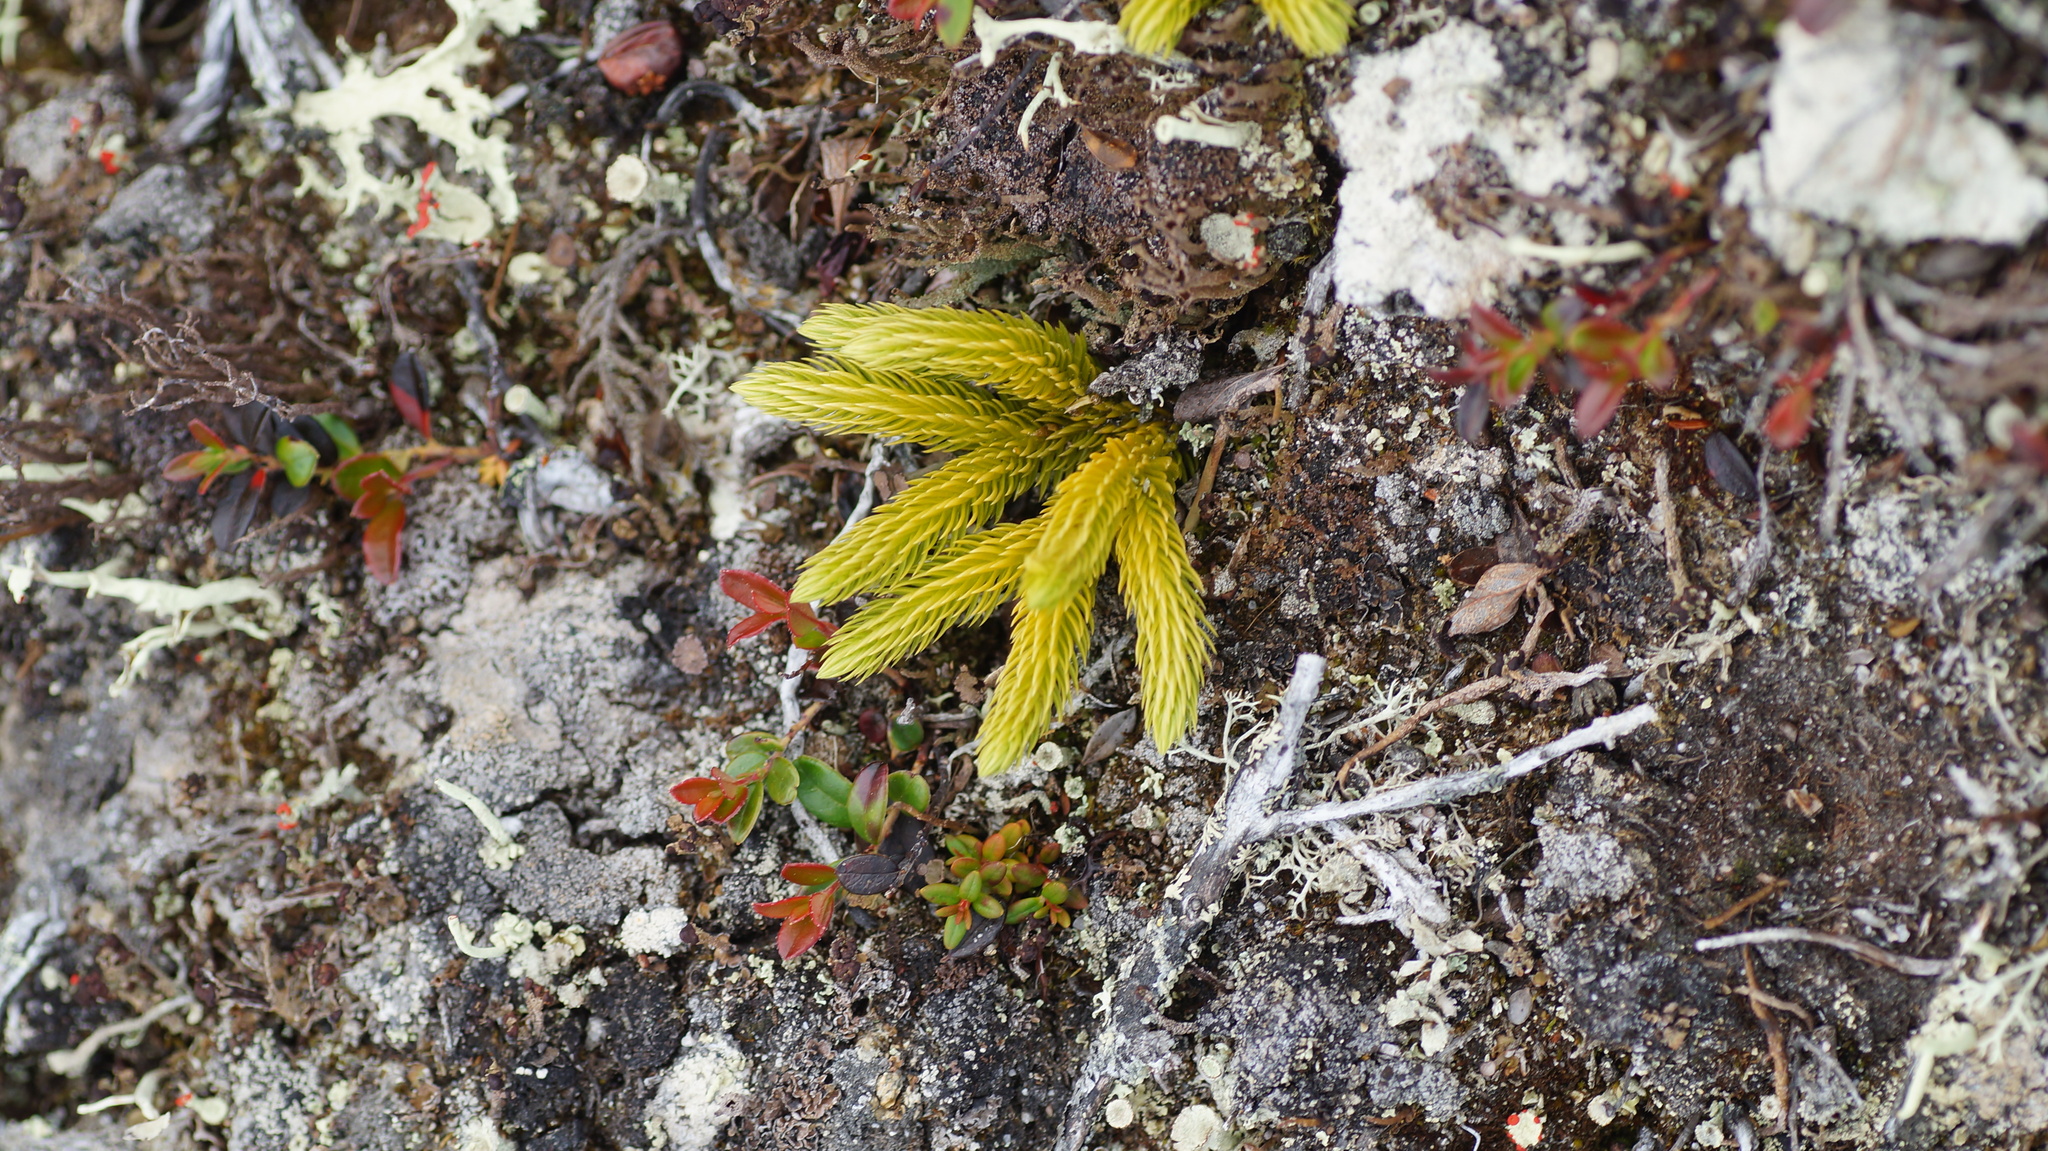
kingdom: Plantae
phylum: Tracheophyta
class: Lycopodiopsida
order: Lycopodiales
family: Lycopodiaceae
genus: Huperzia
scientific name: Huperzia selago
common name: Northern firmoss
